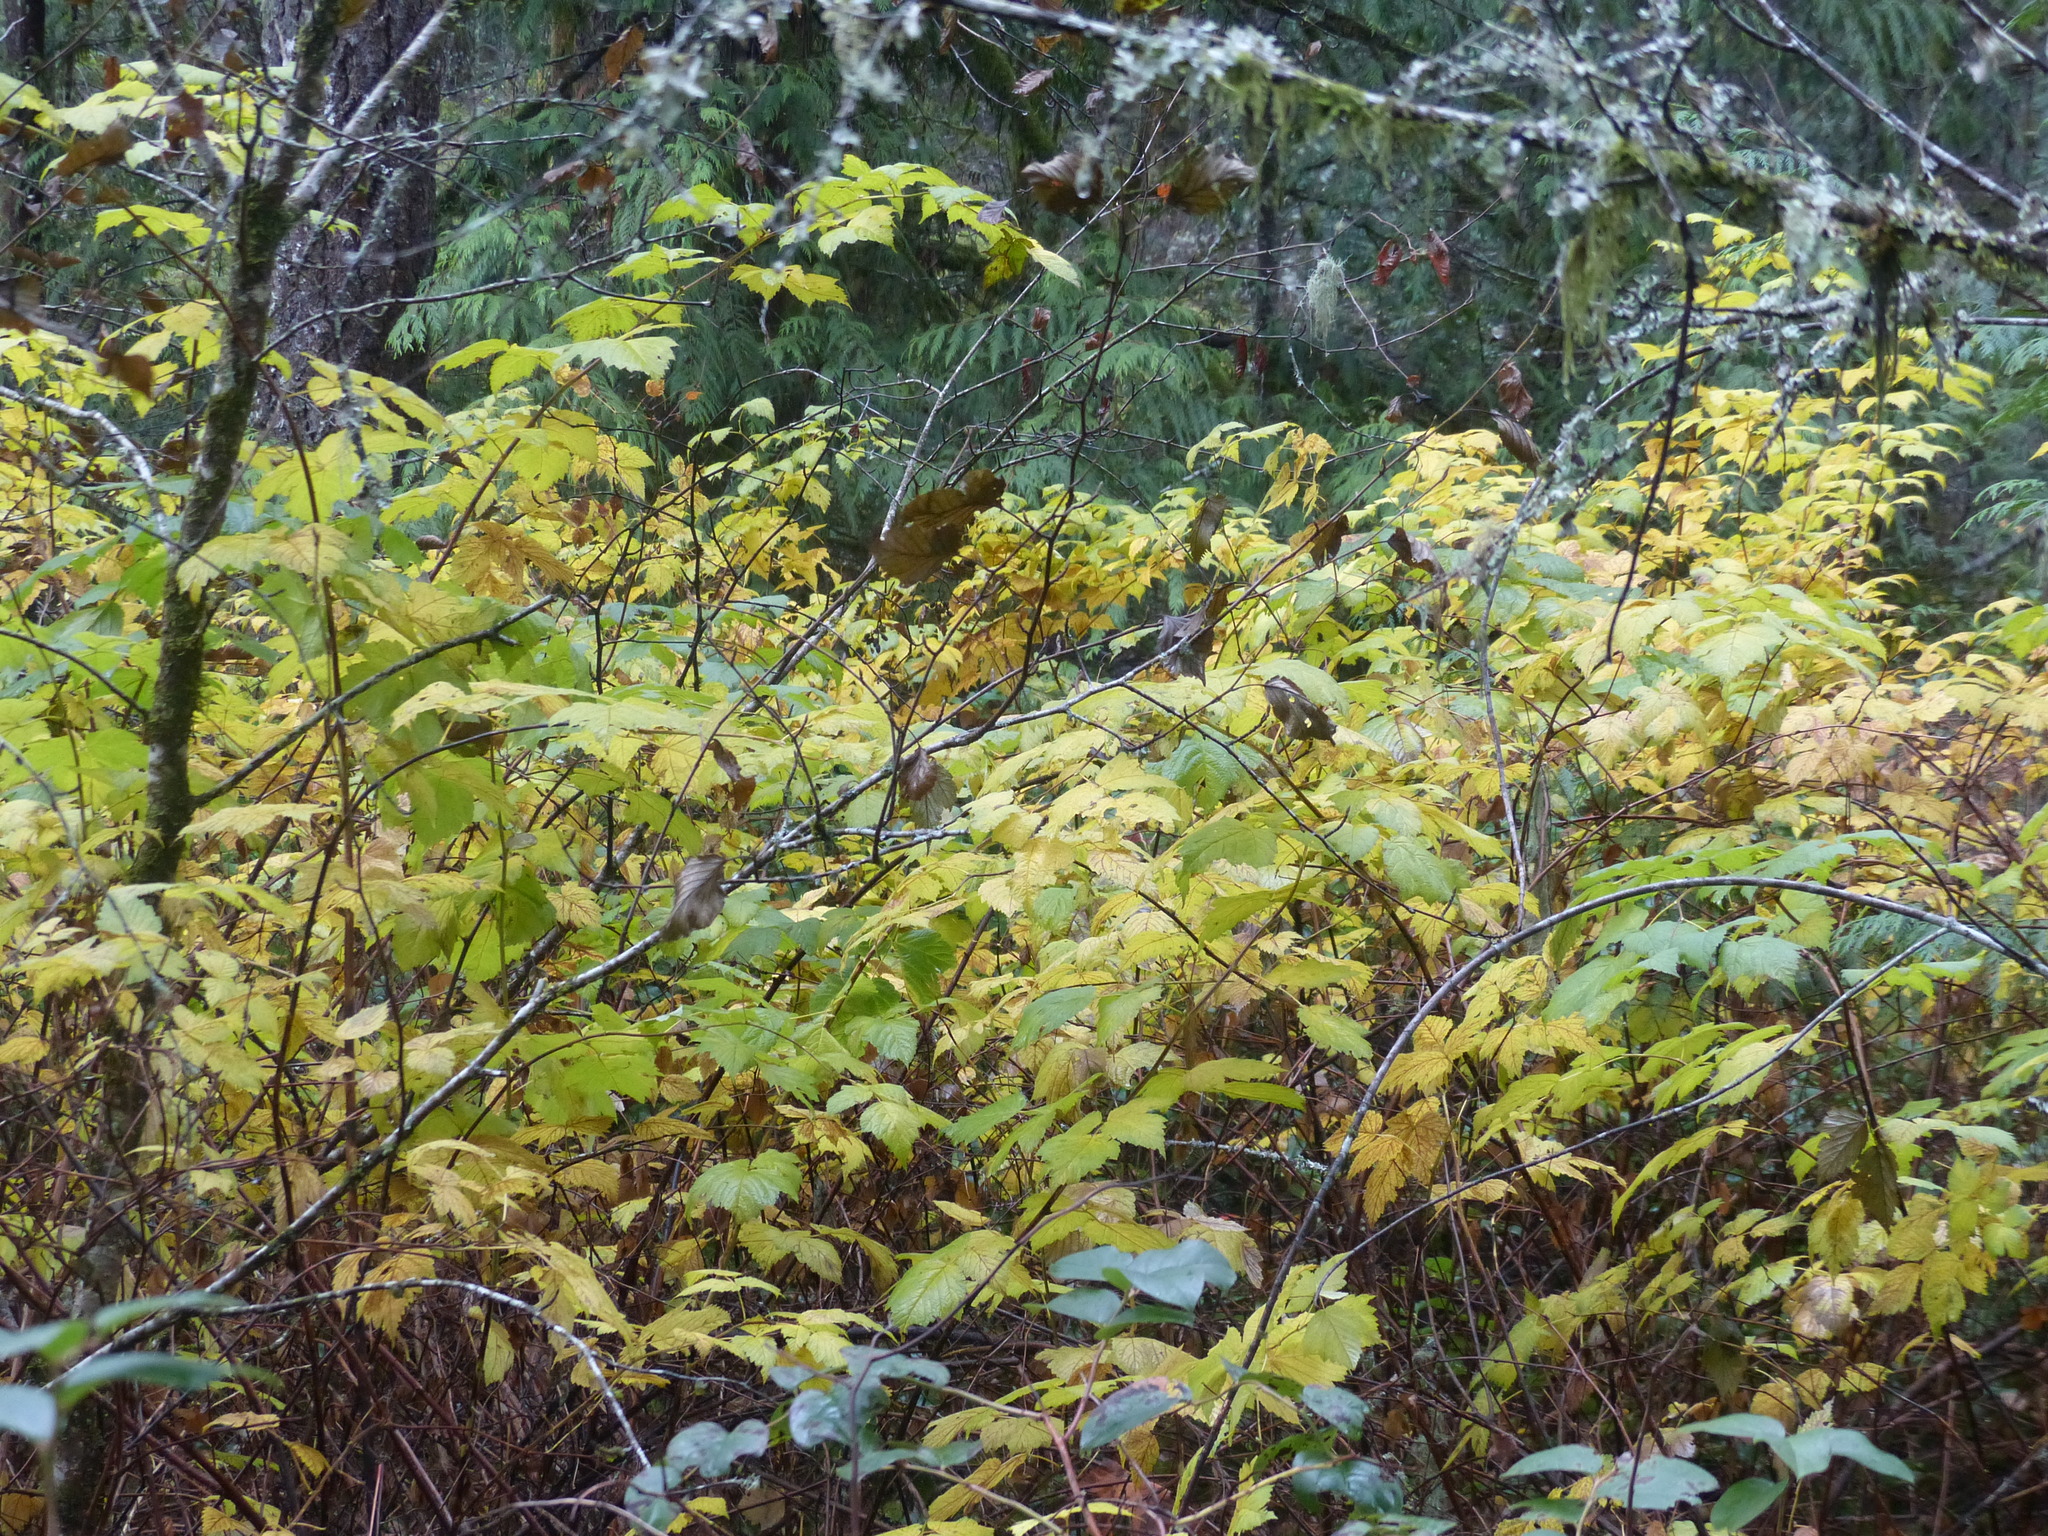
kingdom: Plantae
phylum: Tracheophyta
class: Magnoliopsida
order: Rosales
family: Rosaceae
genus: Rubus
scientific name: Rubus spectabilis
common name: Salmonberry
